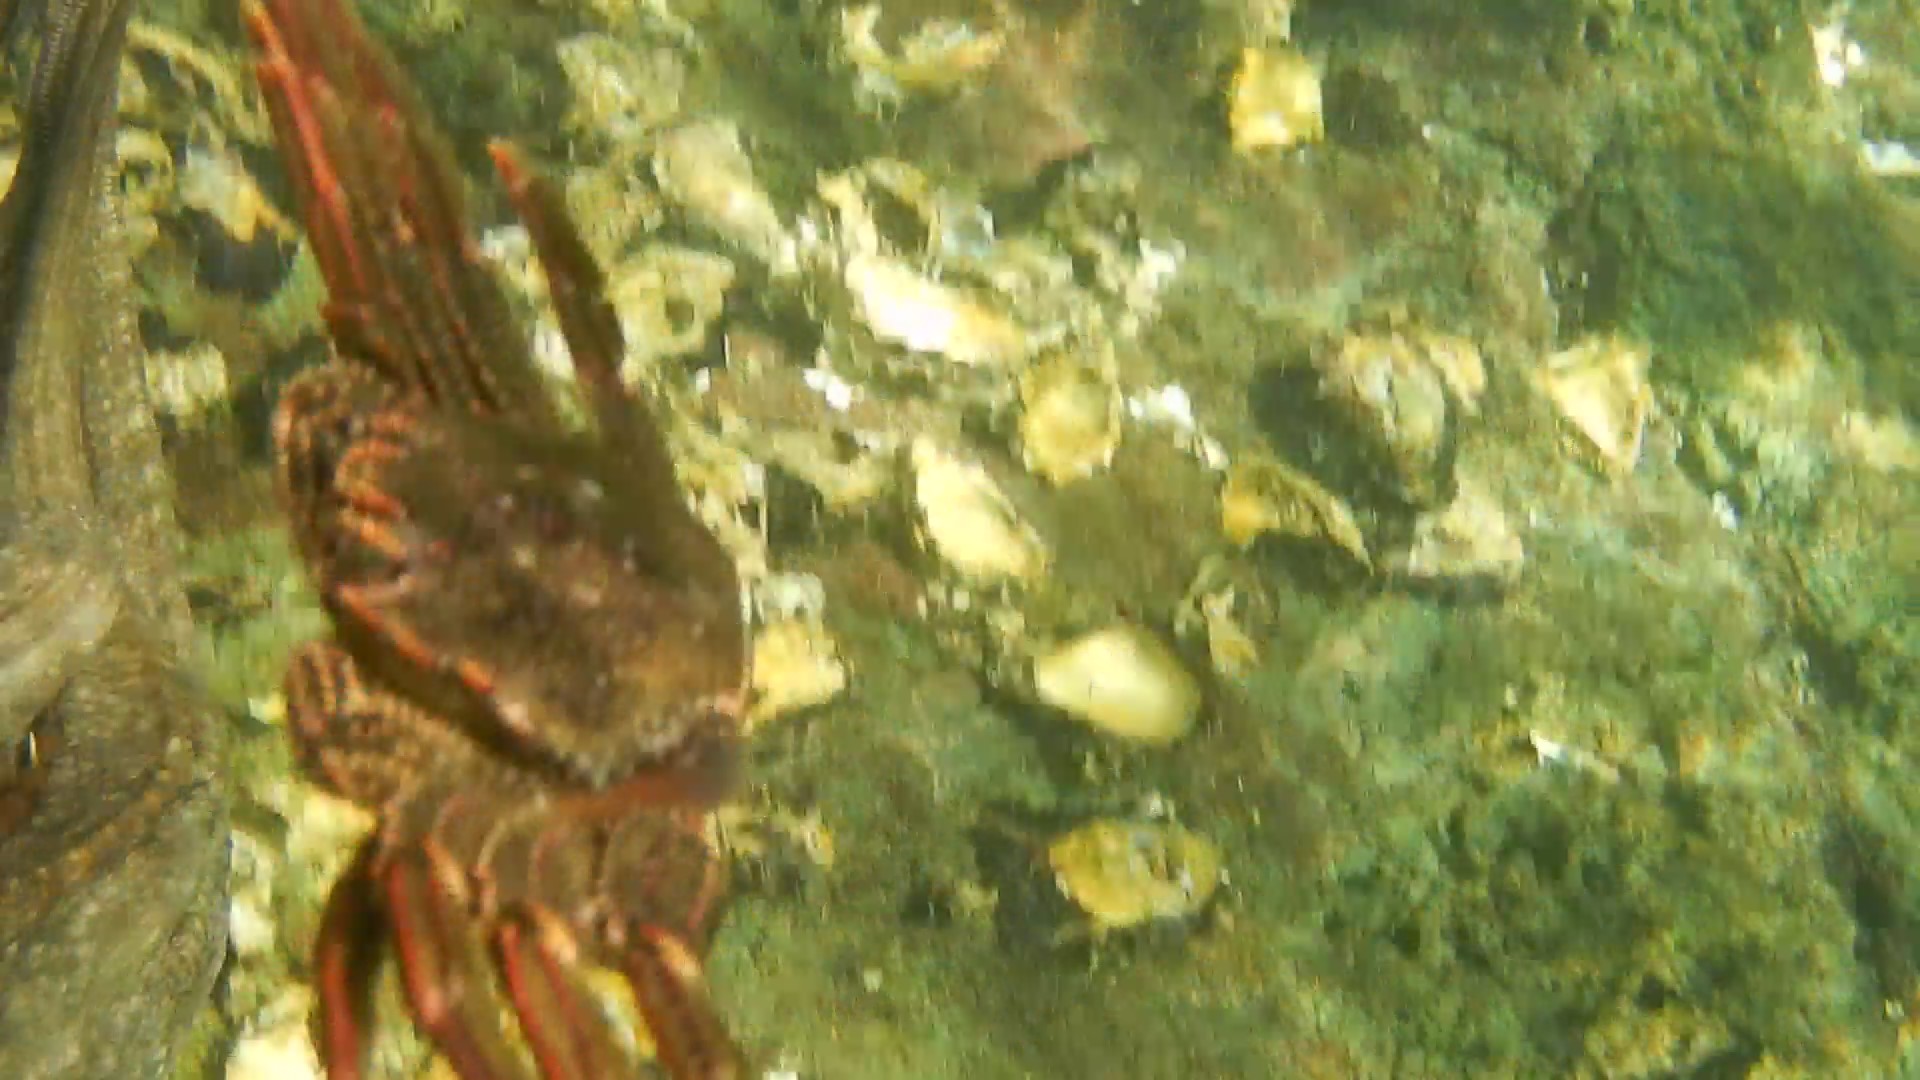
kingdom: Animalia
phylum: Arthropoda
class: Malacostraca
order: Decapoda
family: Plagusiidae
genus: Guinusia
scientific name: Guinusia chabrus
